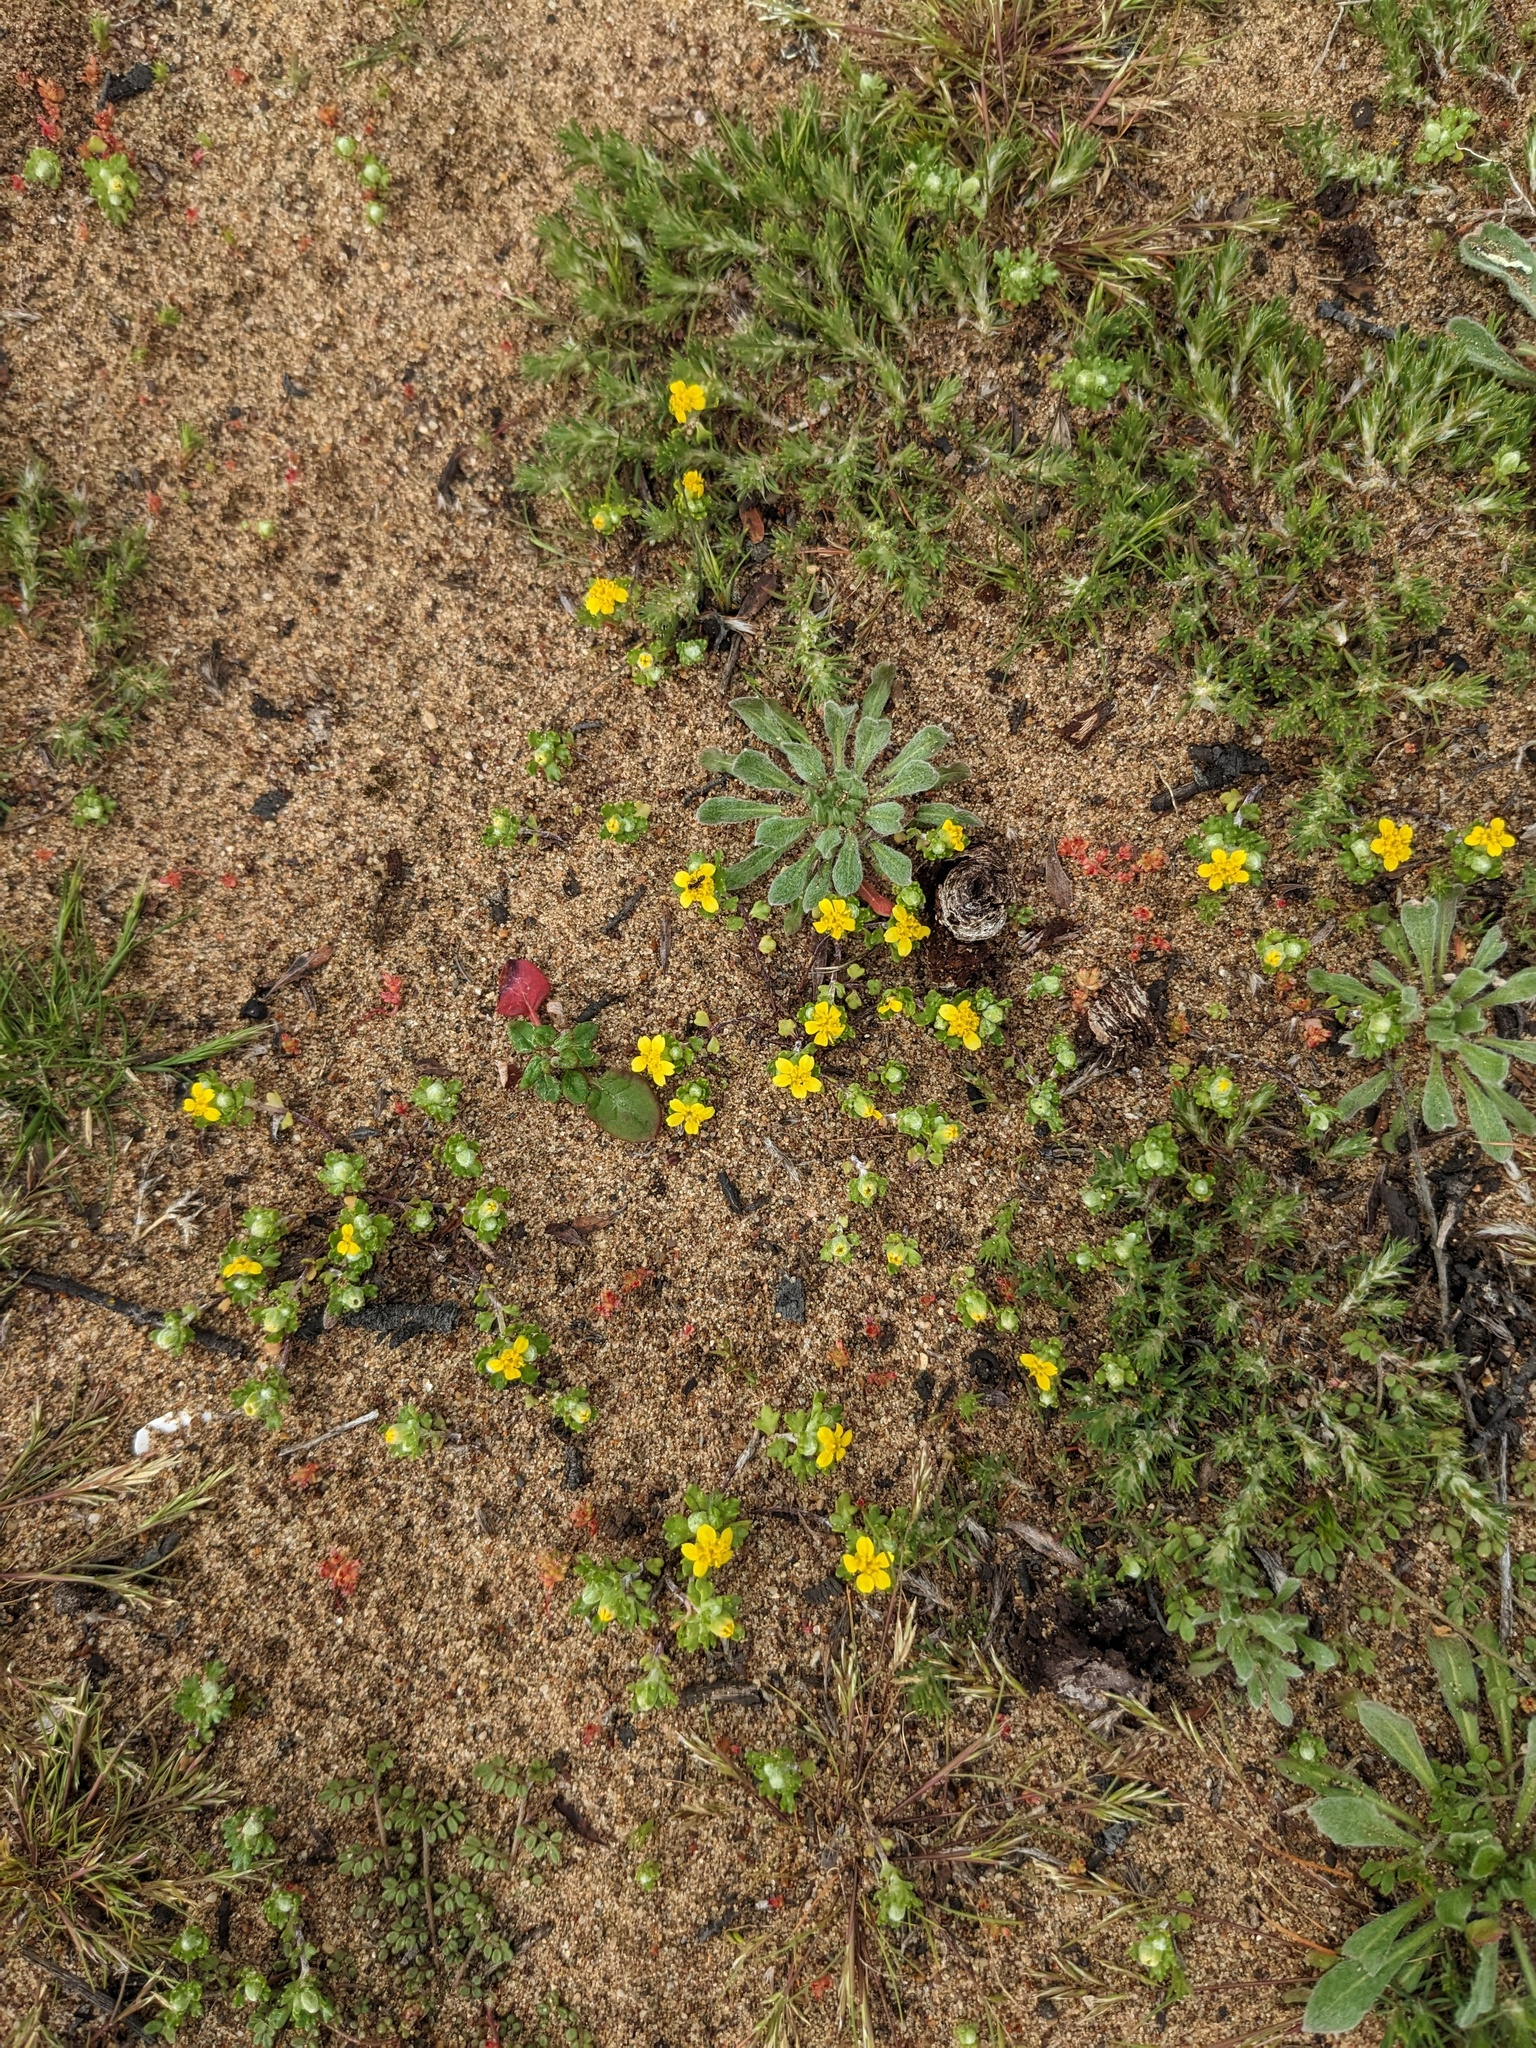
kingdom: Plantae
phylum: Tracheophyta
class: Magnoliopsida
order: Asterales
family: Asteraceae
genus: Eriophyllum
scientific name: Eriophyllum multicaule
